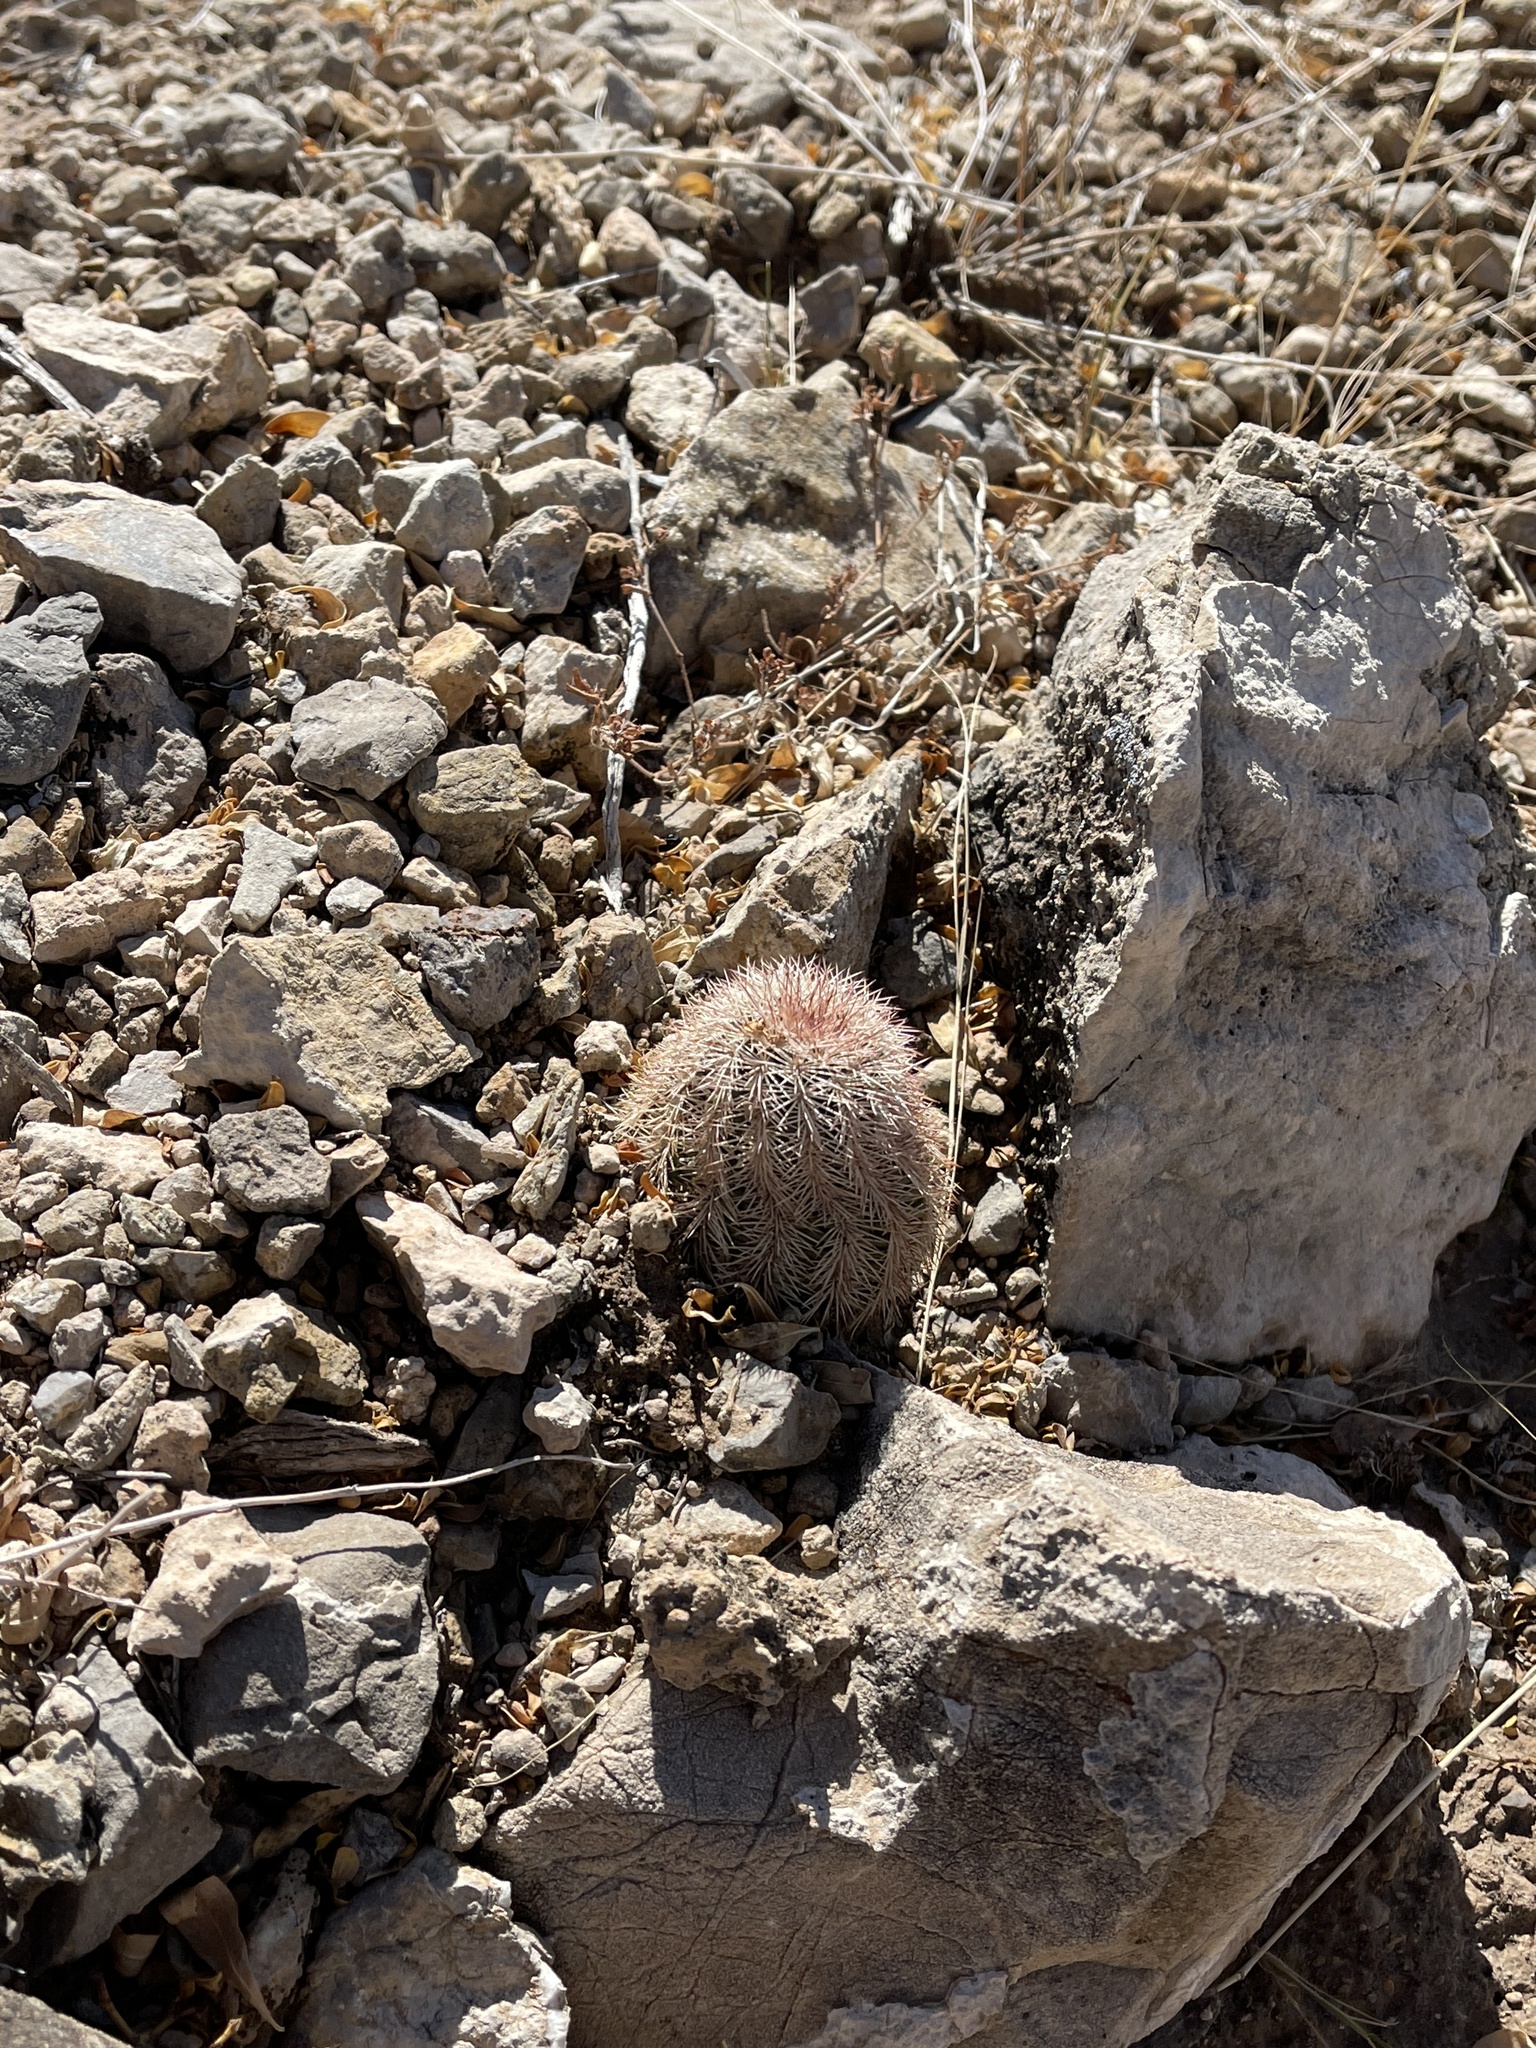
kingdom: Plantae
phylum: Tracheophyta
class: Magnoliopsida
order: Caryophyllales
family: Cactaceae
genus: Echinocereus
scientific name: Echinocereus dasyacanthus
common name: Spiny hedgehog cactus
